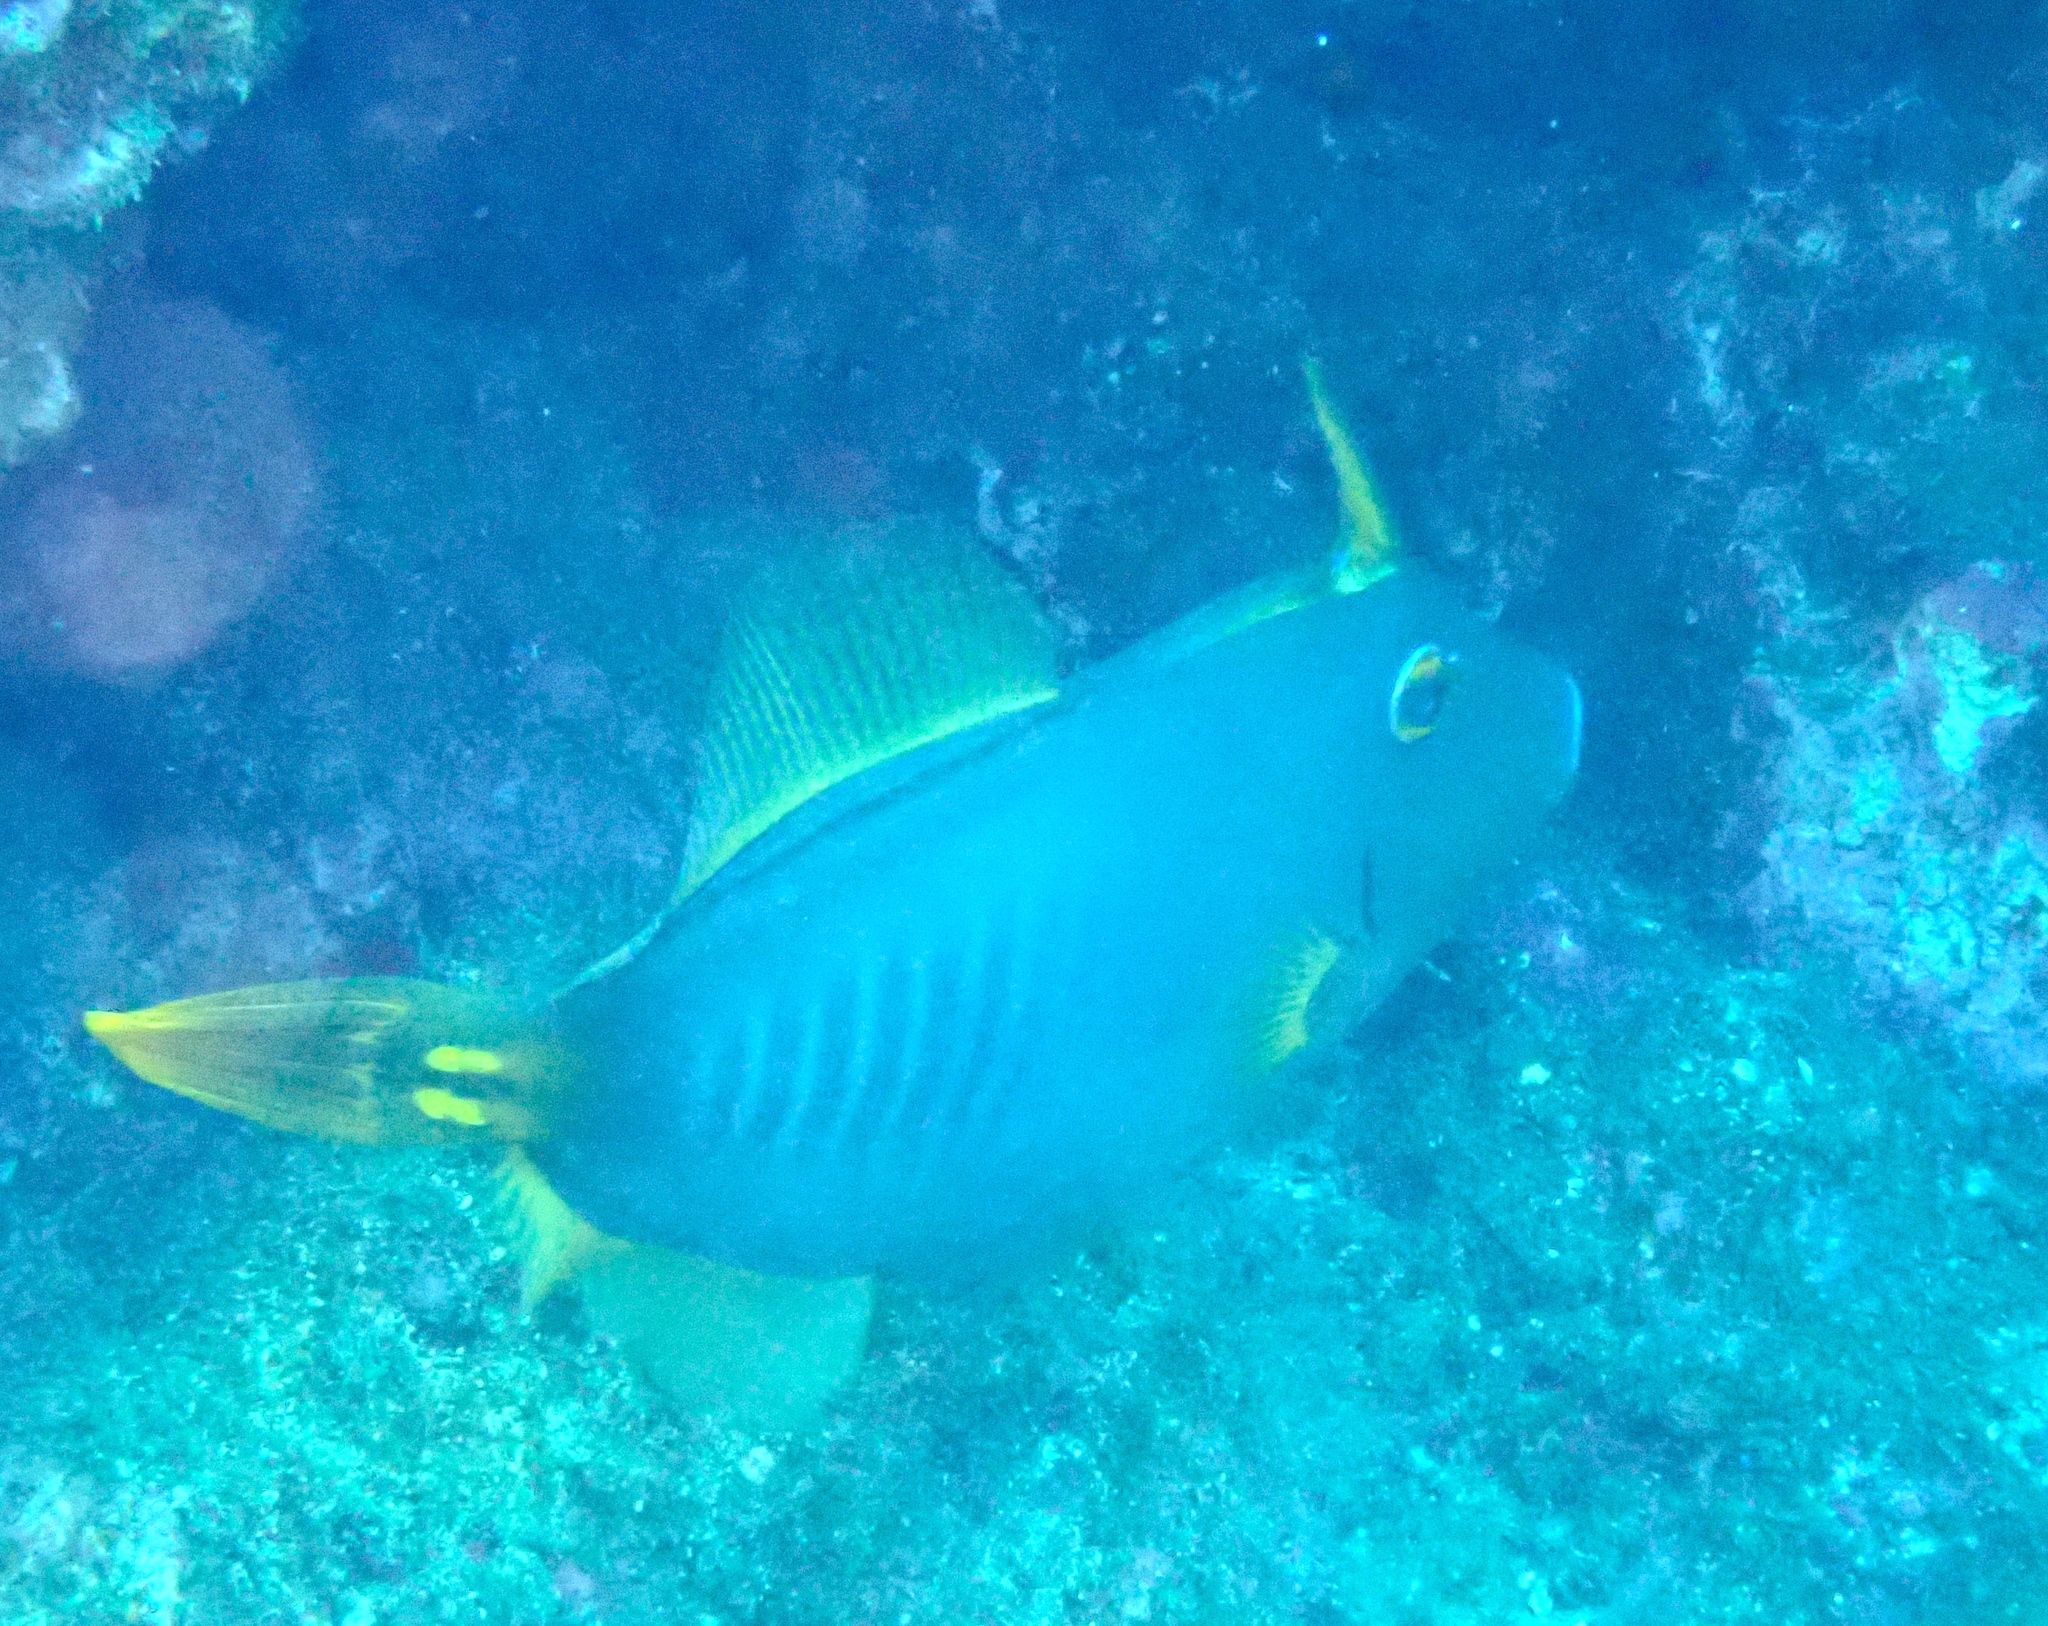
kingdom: Animalia
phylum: Chordata
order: Tetraodontiformes
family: Monacanthidae
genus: Cantherhines
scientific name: Cantherhines dumerilii
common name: Barred filefish
